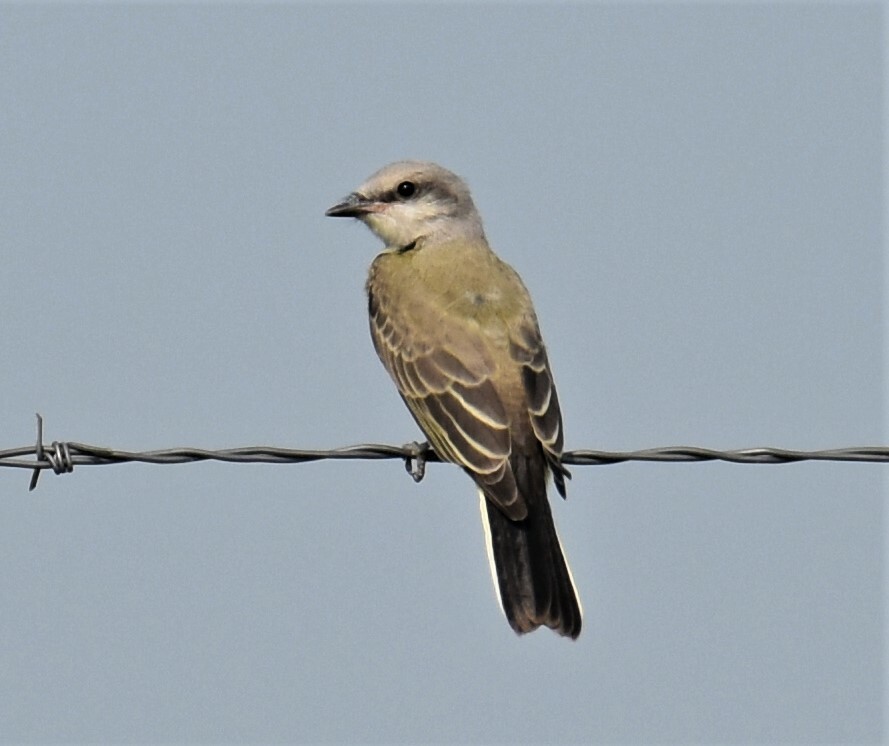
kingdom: Animalia
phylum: Chordata
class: Aves
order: Passeriformes
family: Tyrannidae
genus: Tyrannus
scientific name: Tyrannus verticalis
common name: Western kingbird
